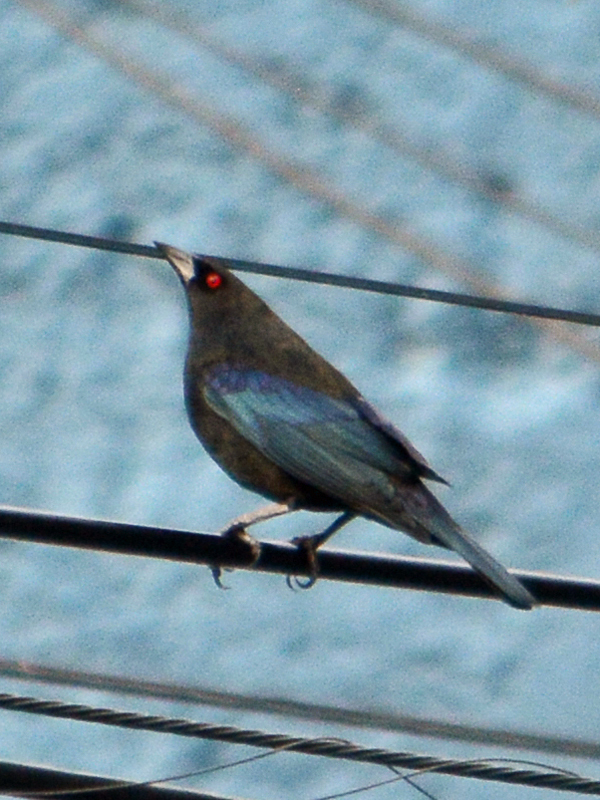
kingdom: Animalia
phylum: Chordata
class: Aves
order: Passeriformes
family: Icteridae
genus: Molothrus
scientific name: Molothrus aeneus
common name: Bronzed cowbird
